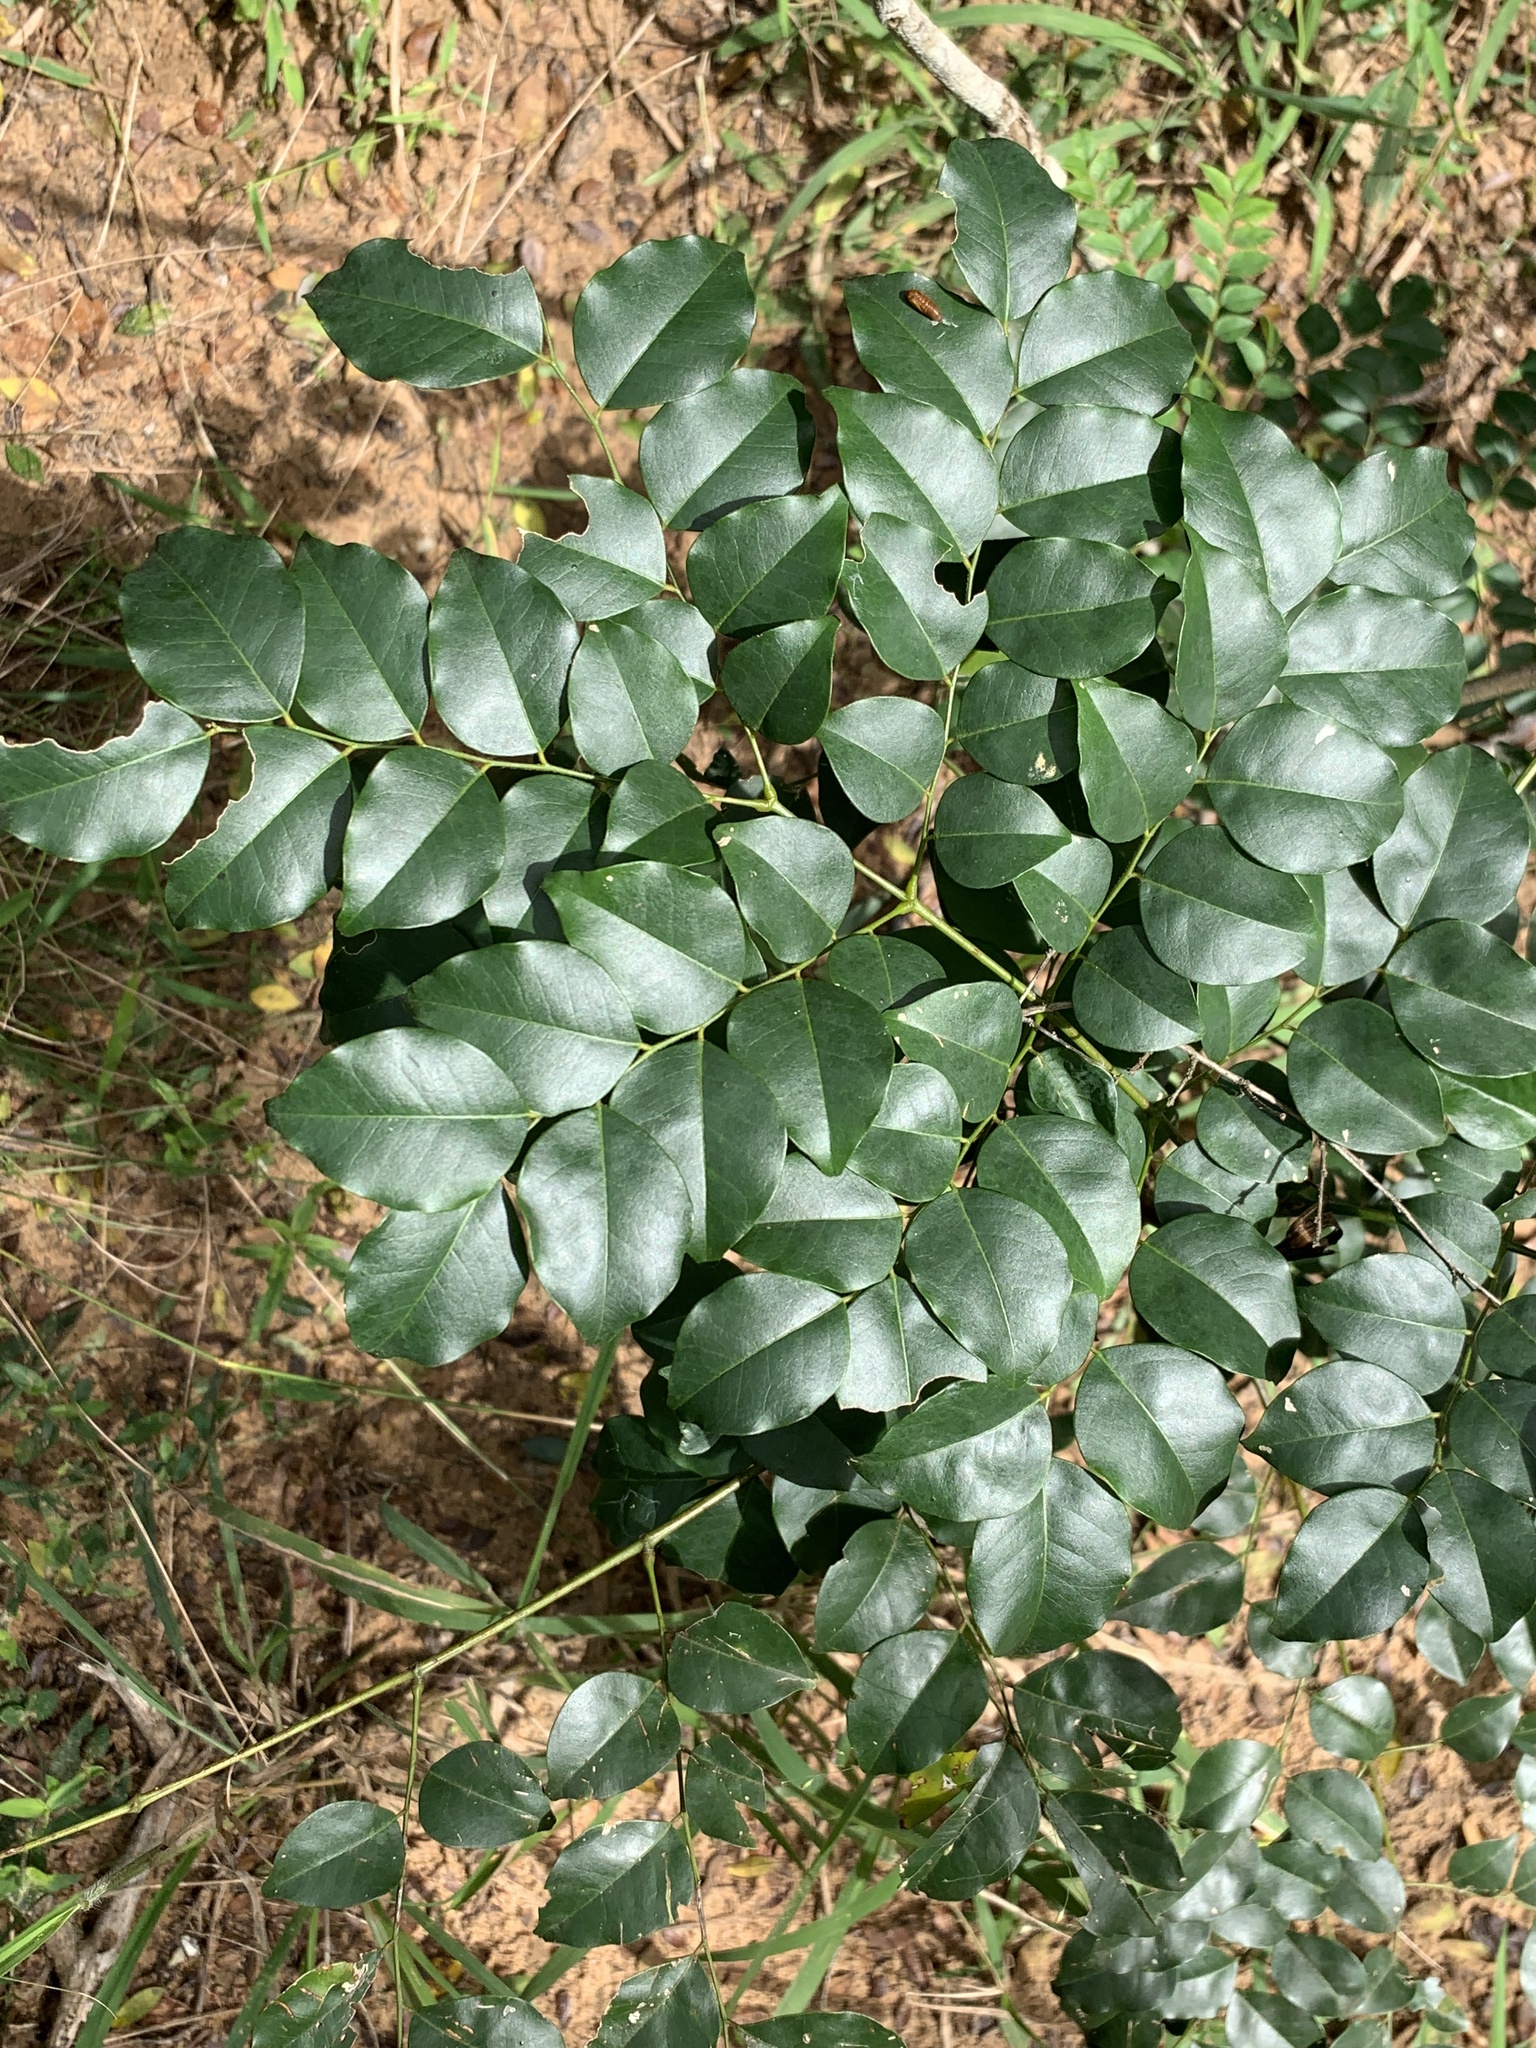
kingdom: Plantae
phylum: Tracheophyta
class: Magnoliopsida
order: Fabales
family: Fabaceae
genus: Erythrophleum
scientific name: Erythrophleum lasianthum
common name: Maputaland ordeal tree
